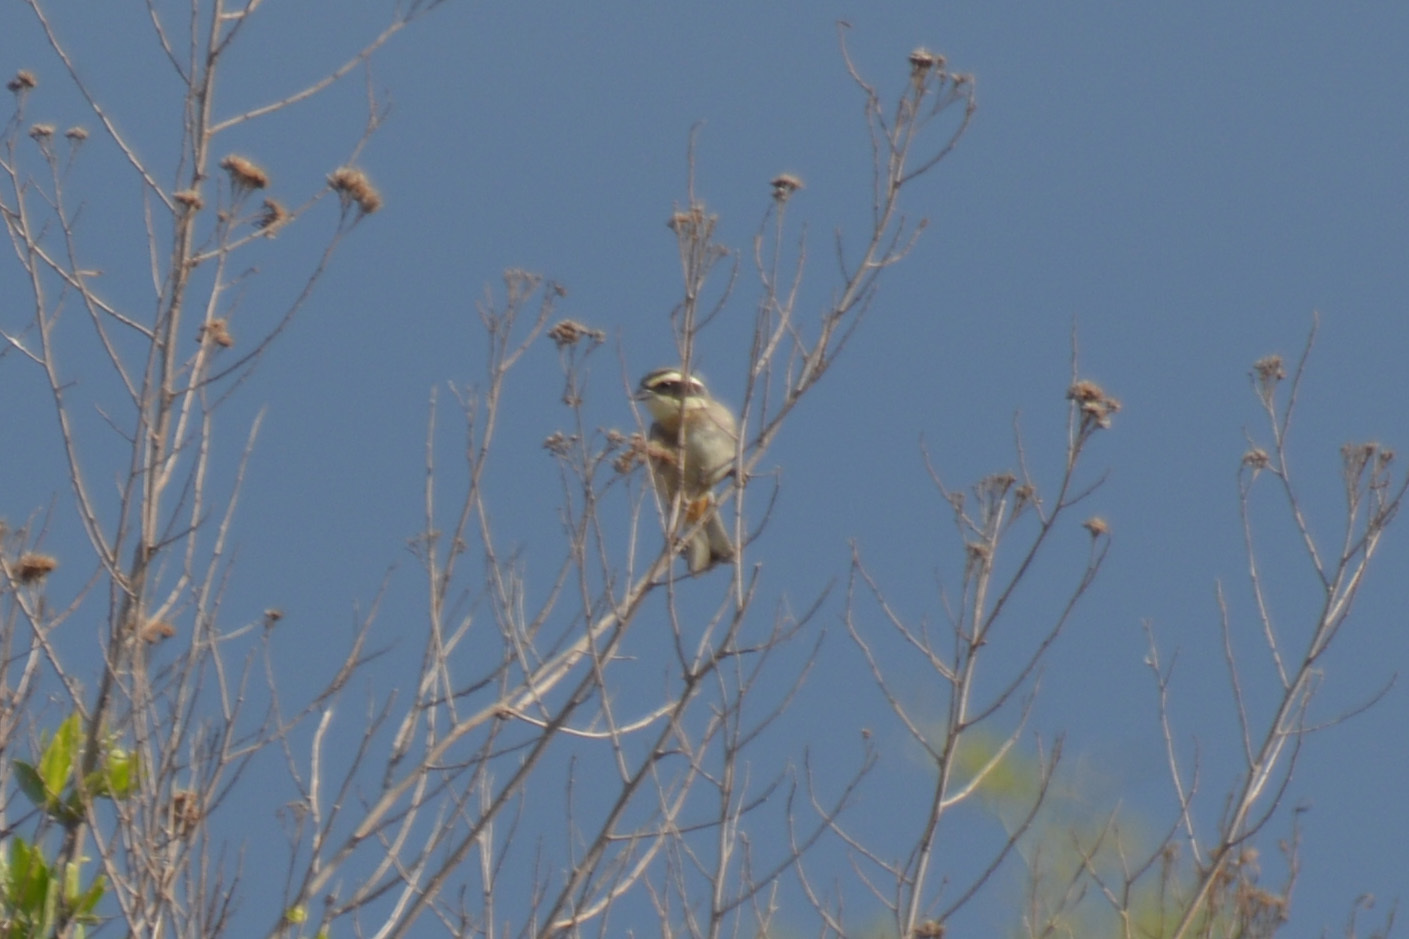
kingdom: Animalia
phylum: Chordata
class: Aves
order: Passeriformes
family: Thraupidae
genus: Microspingus
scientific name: Microspingus torquatus
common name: Ringed warbling-finch
